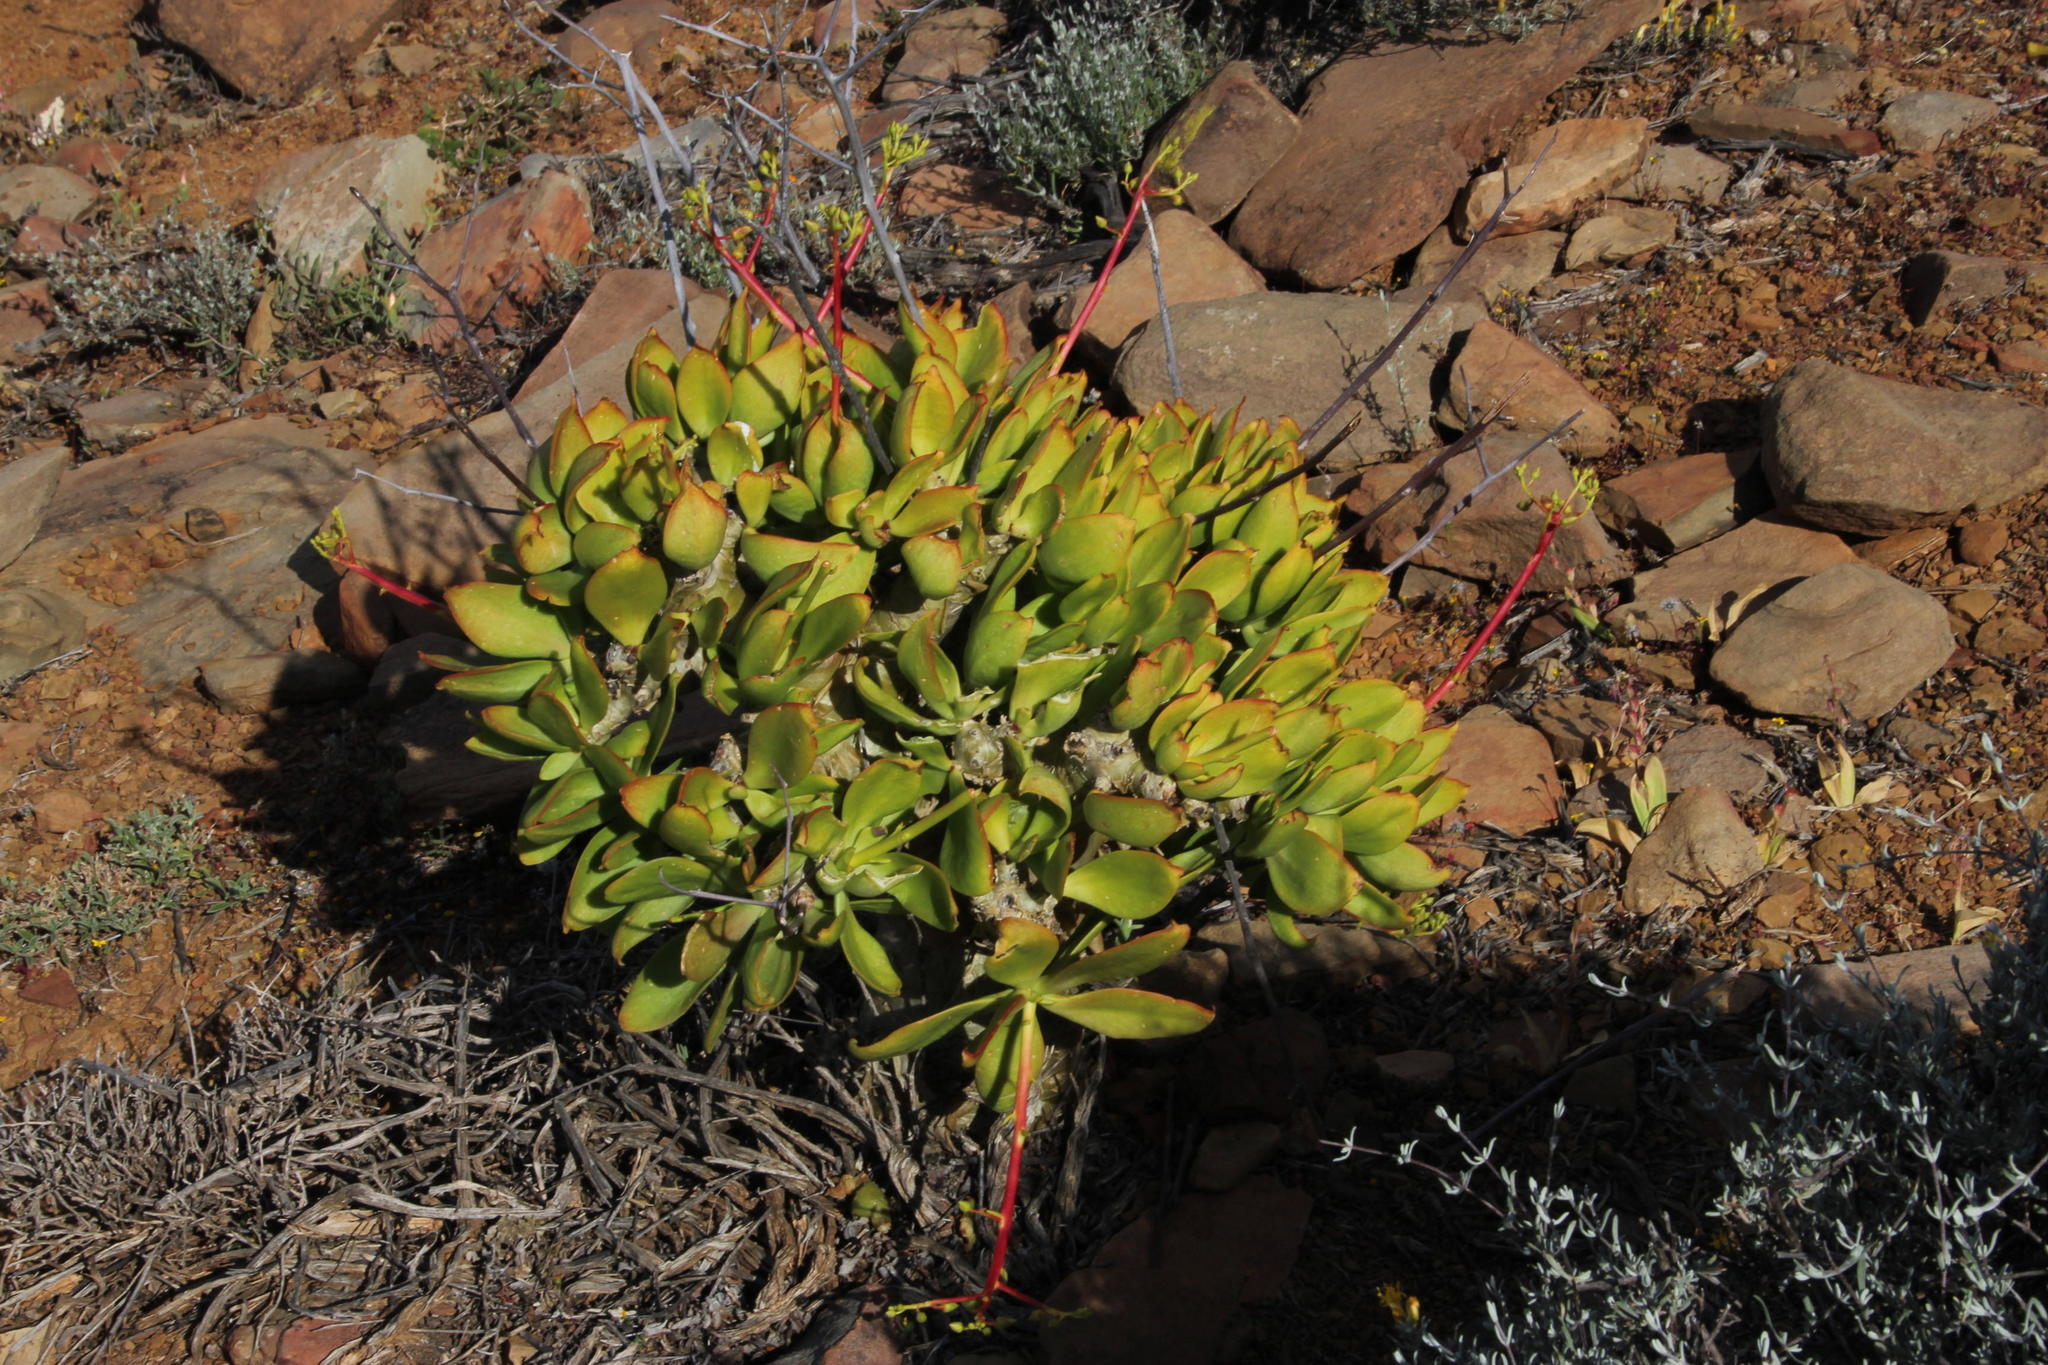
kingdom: Plantae
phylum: Tracheophyta
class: Magnoliopsida
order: Saxifragales
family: Crassulaceae
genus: Tylecodon
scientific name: Tylecodon paniculatus
